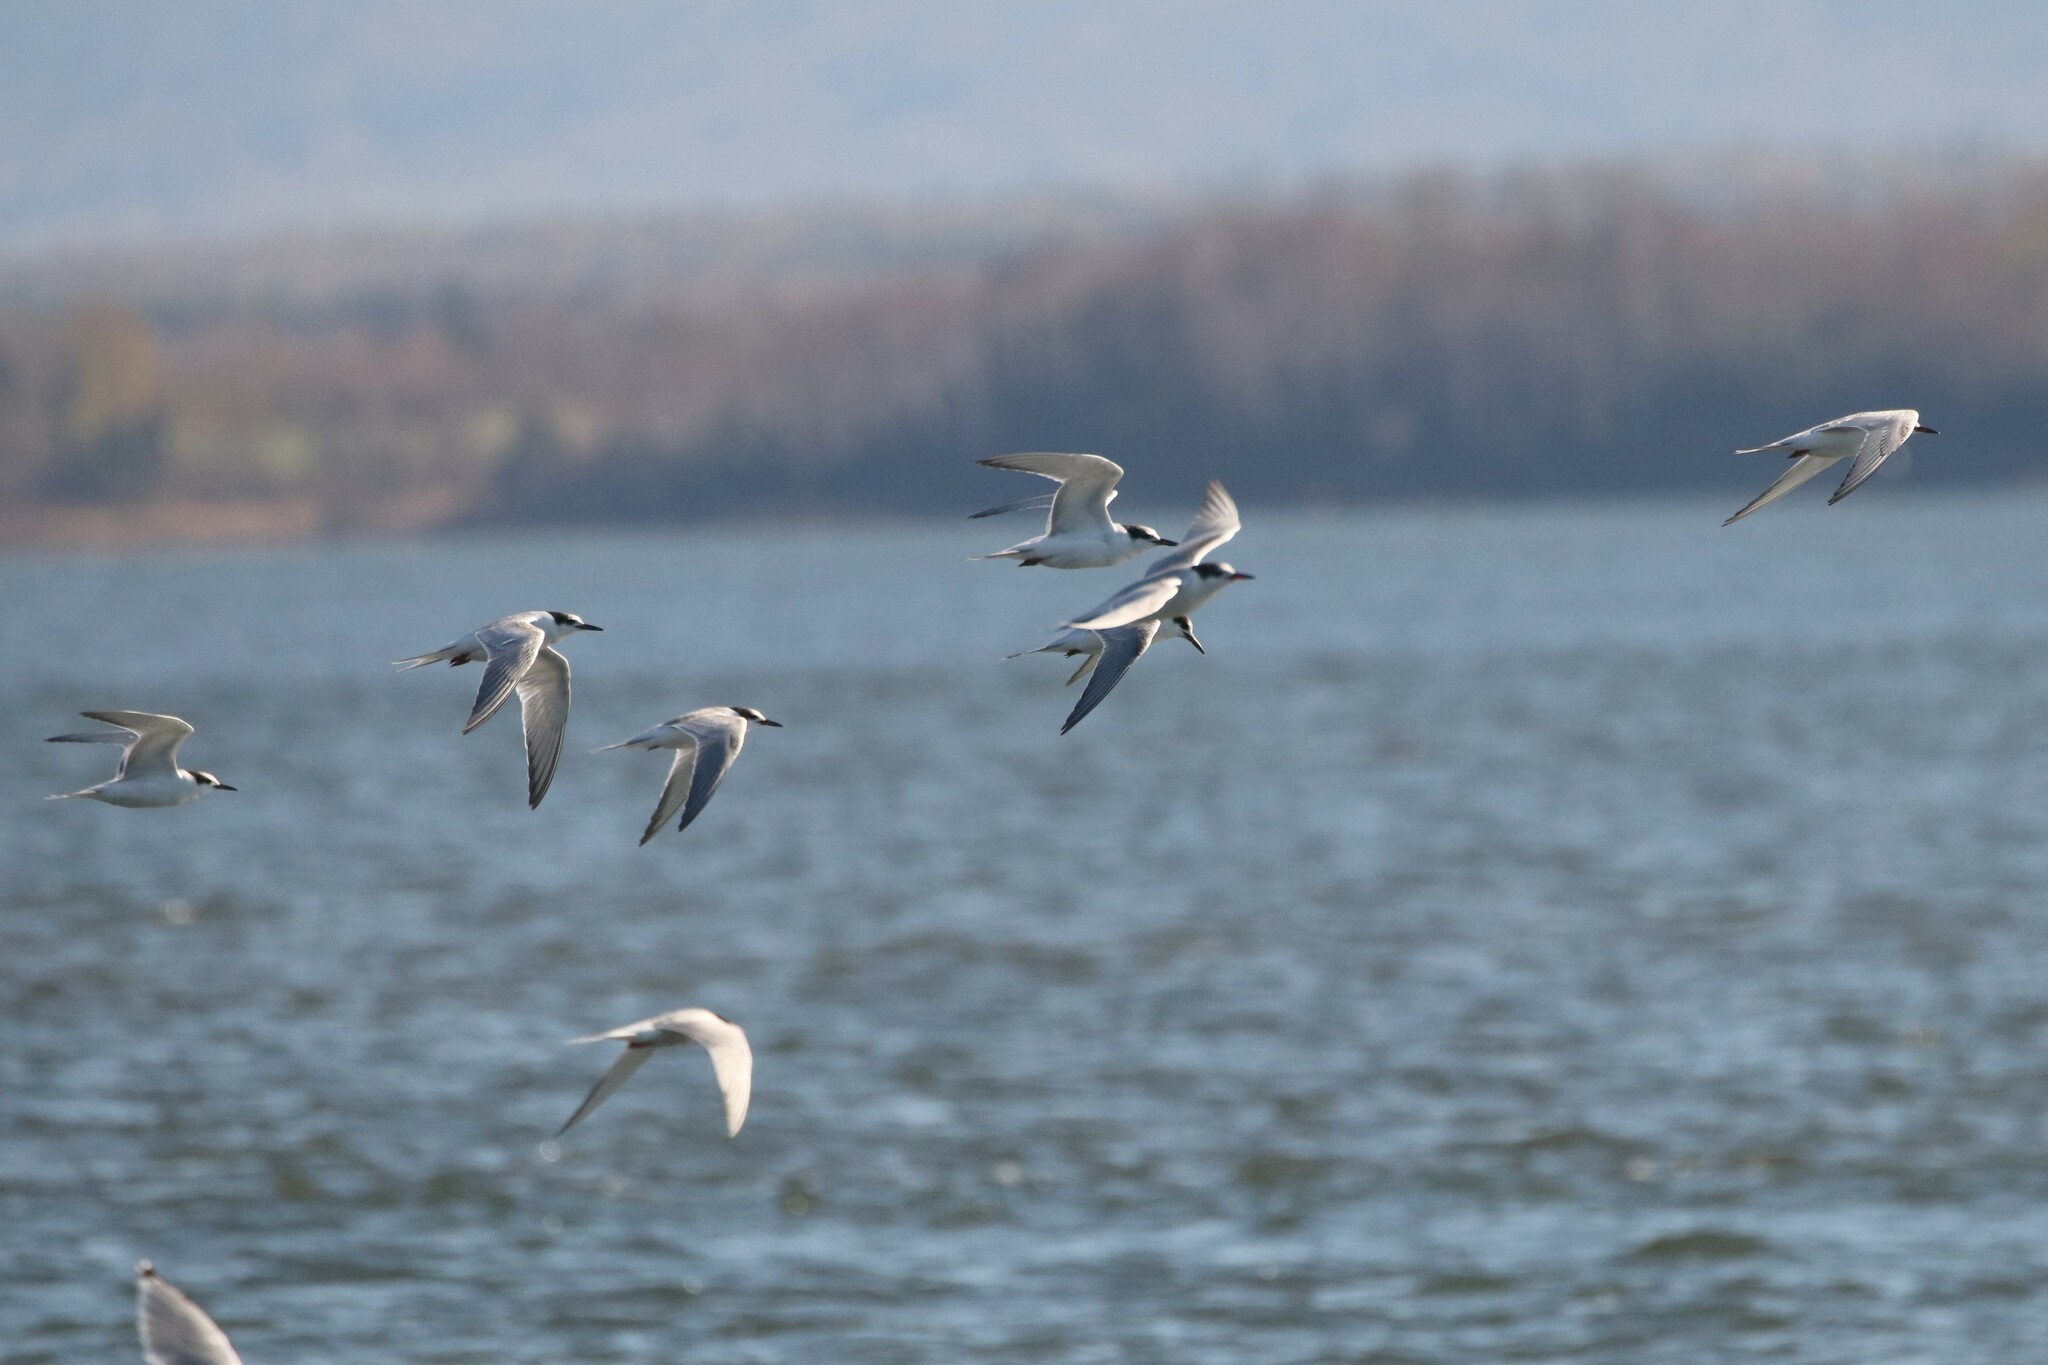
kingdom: Animalia
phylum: Chordata
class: Aves
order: Charadriiformes
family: Laridae
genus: Sterna
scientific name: Sterna hirundo
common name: Common tern
